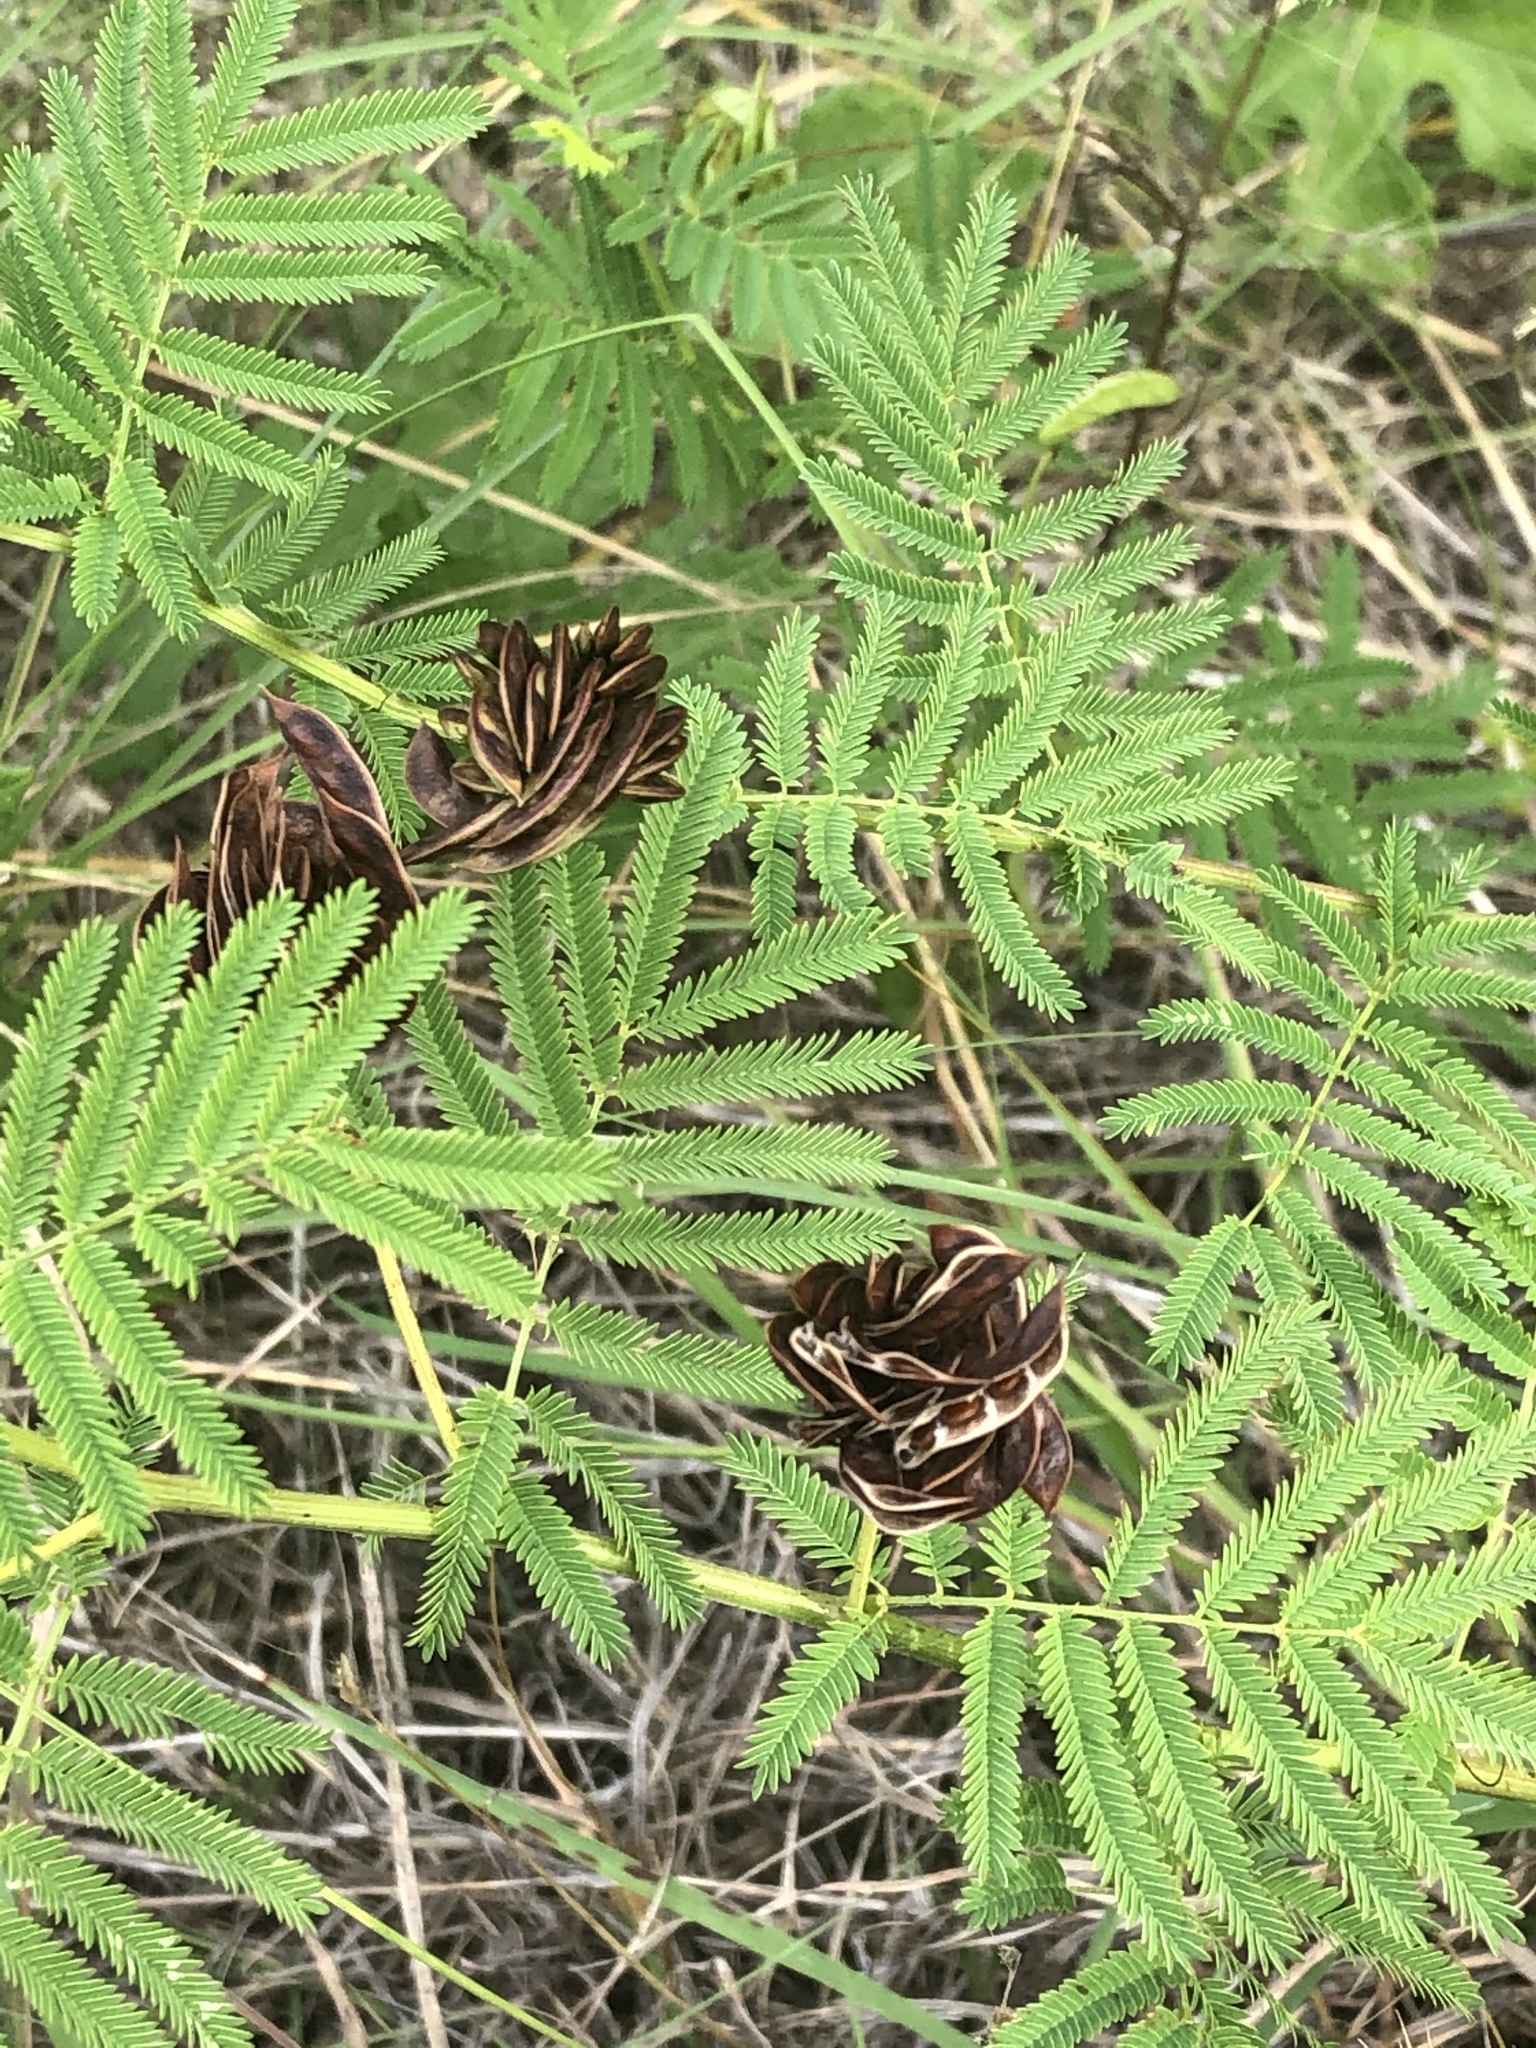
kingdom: Plantae
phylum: Tracheophyta
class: Magnoliopsida
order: Fabales
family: Fabaceae
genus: Desmanthus
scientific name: Desmanthus illinoensis
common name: Illinois bundle-flower
